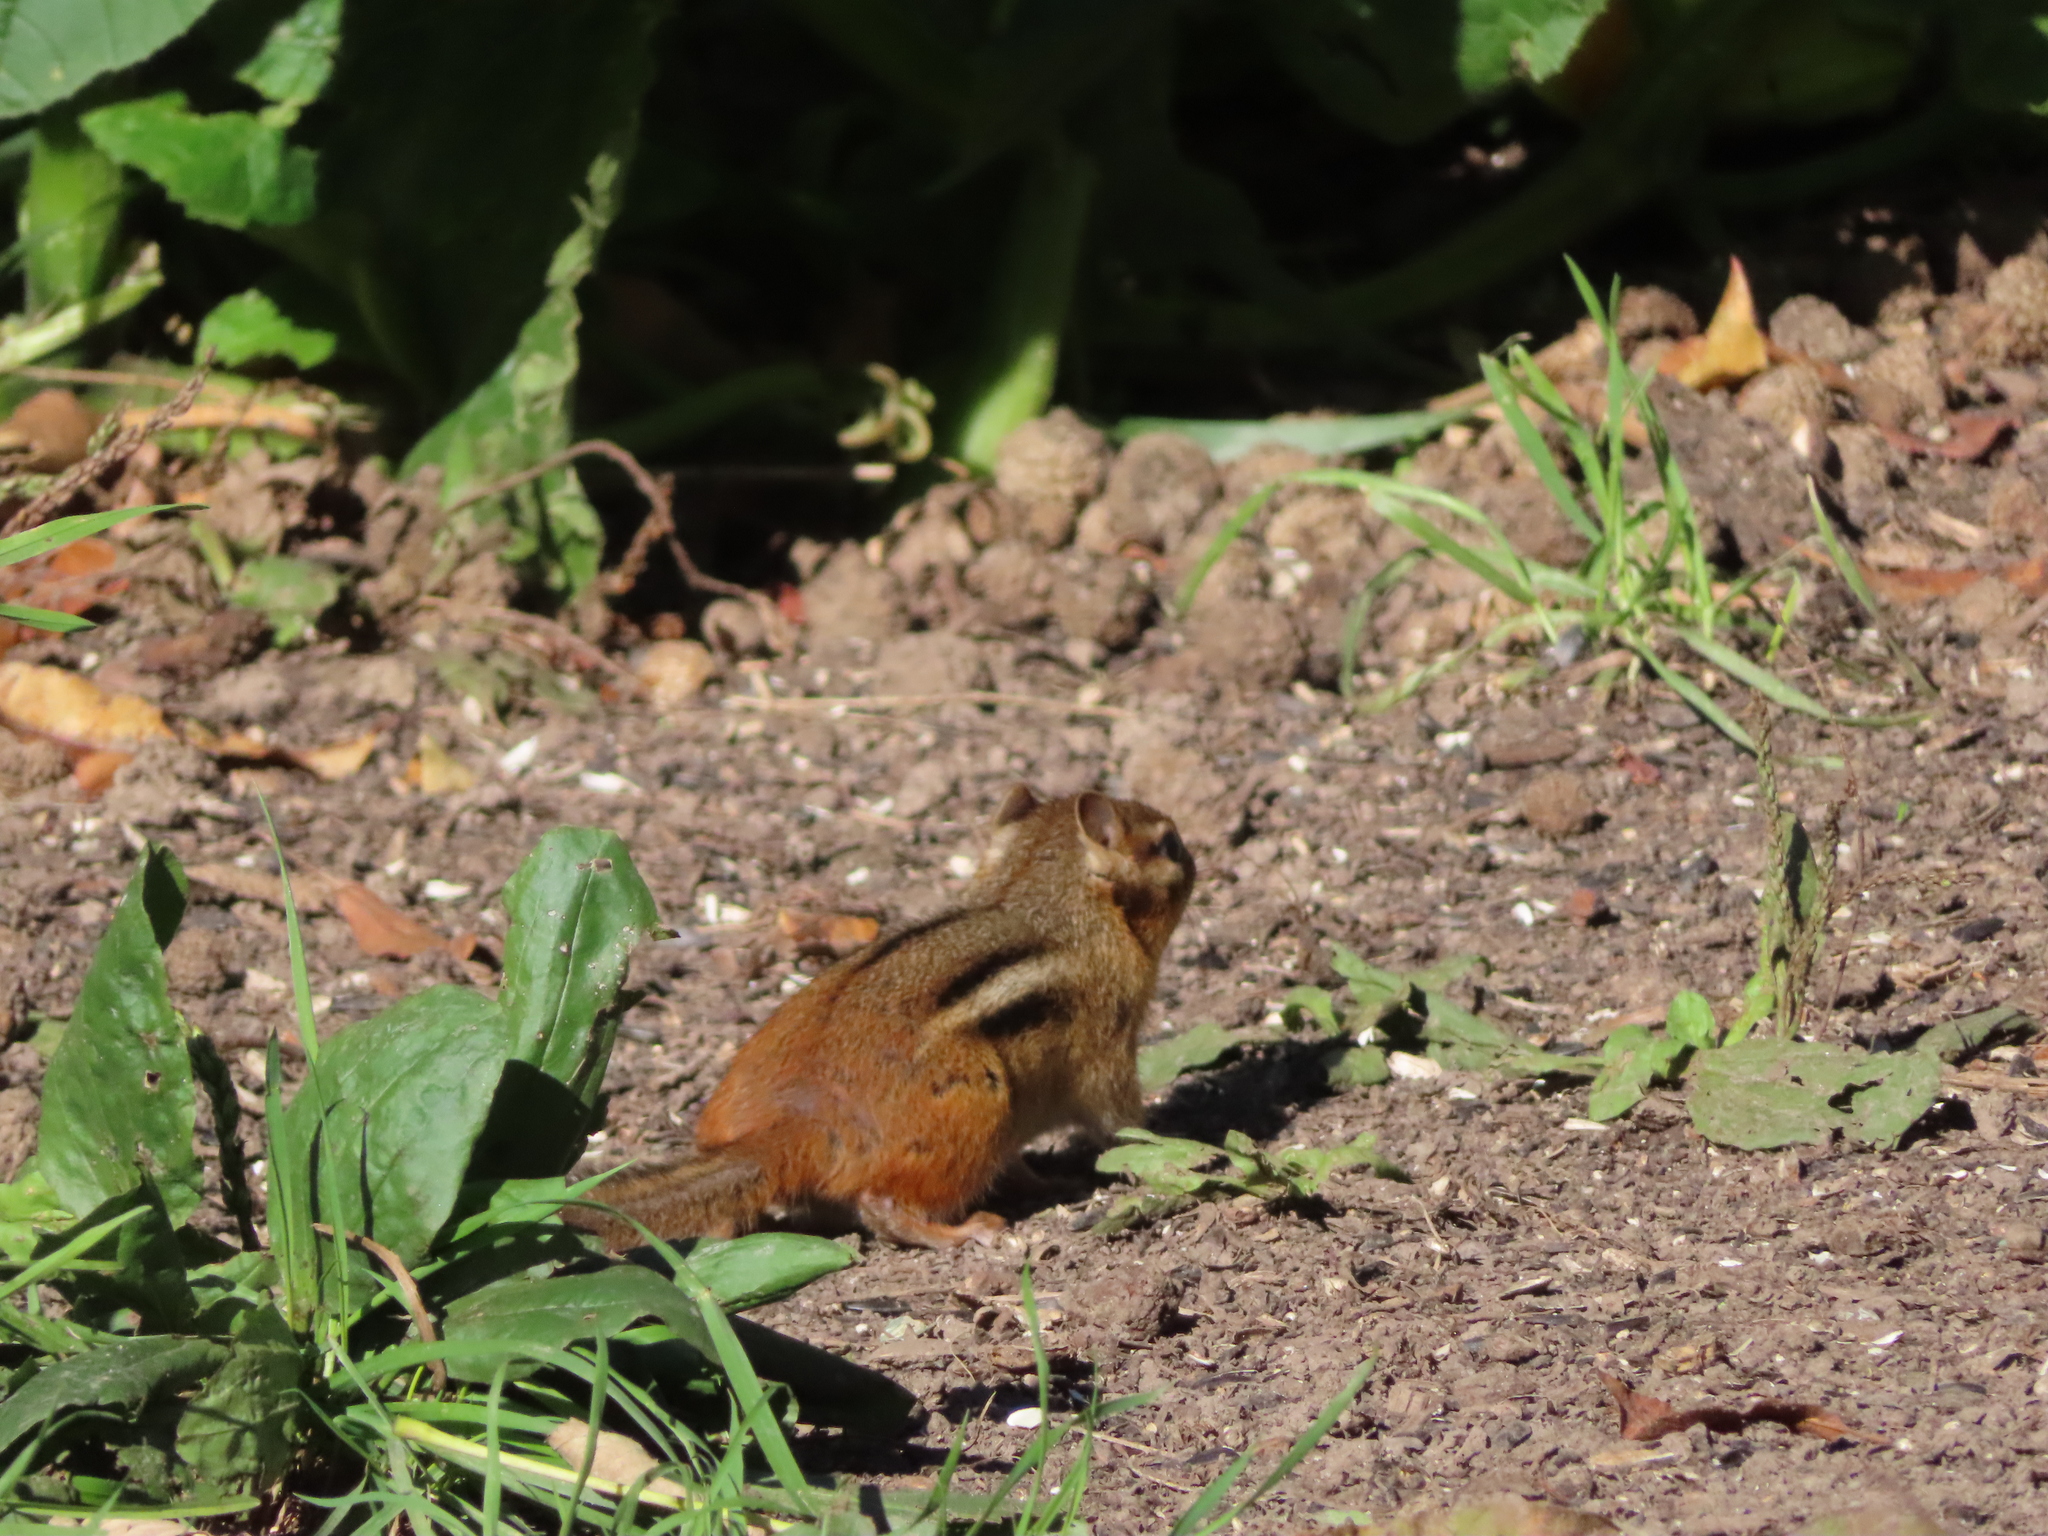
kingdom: Animalia
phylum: Chordata
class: Mammalia
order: Rodentia
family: Sciuridae
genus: Tamias
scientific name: Tamias striatus
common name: Eastern chipmunk
